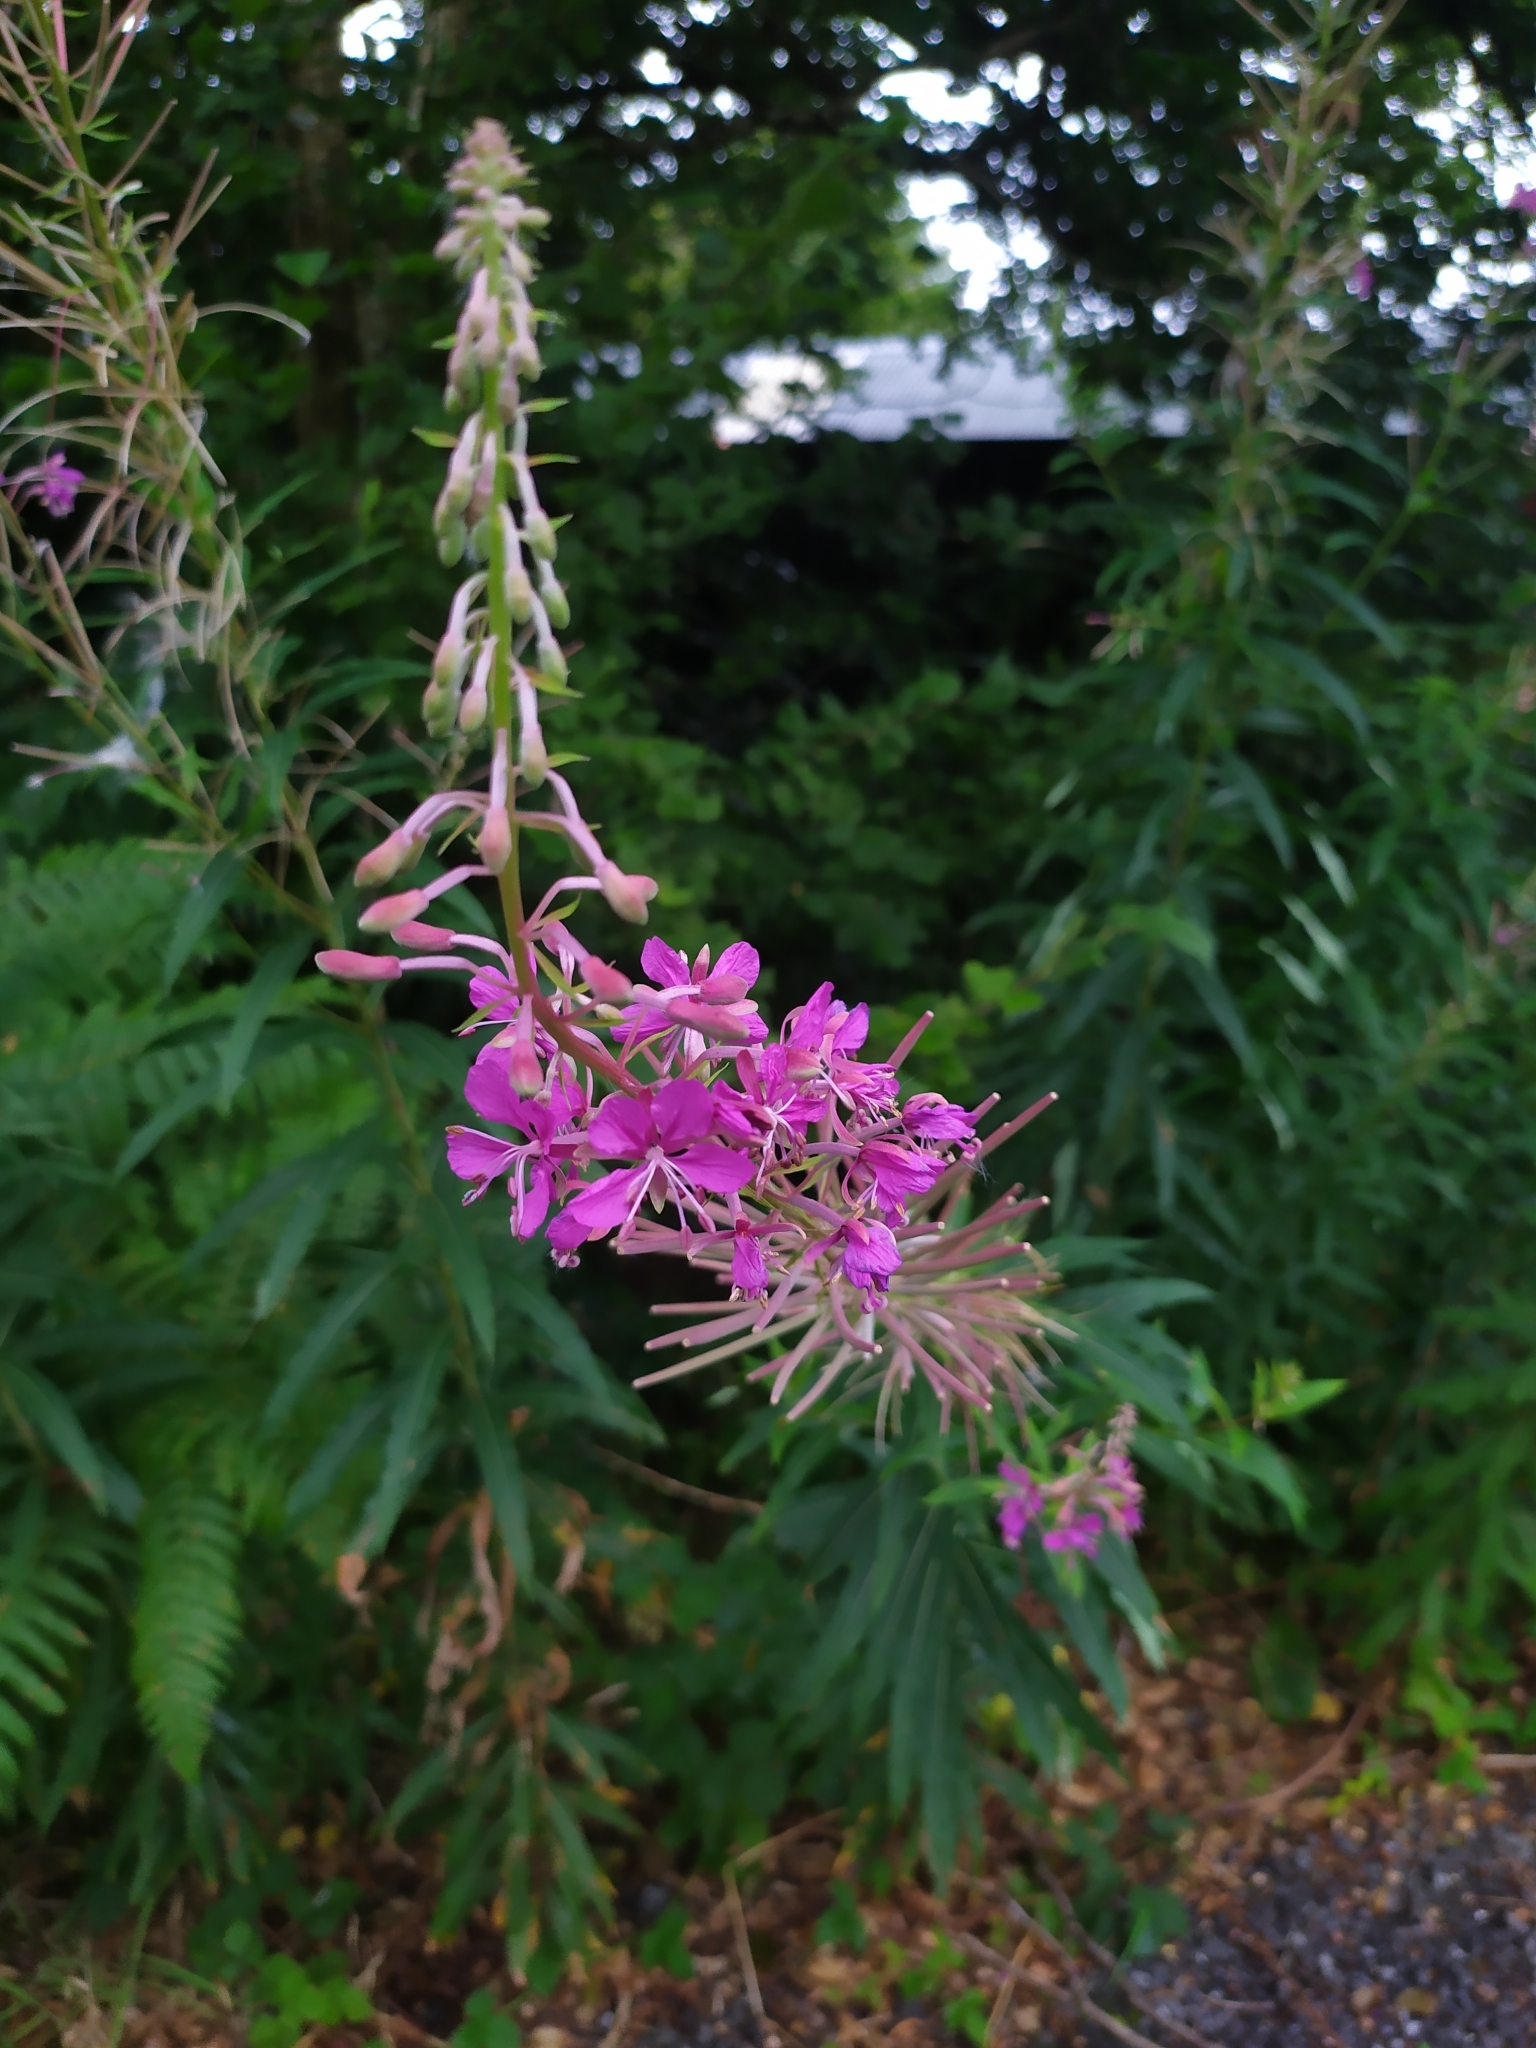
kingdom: Plantae
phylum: Tracheophyta
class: Magnoliopsida
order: Myrtales
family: Onagraceae
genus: Chamaenerion
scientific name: Chamaenerion angustifolium
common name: Fireweed
